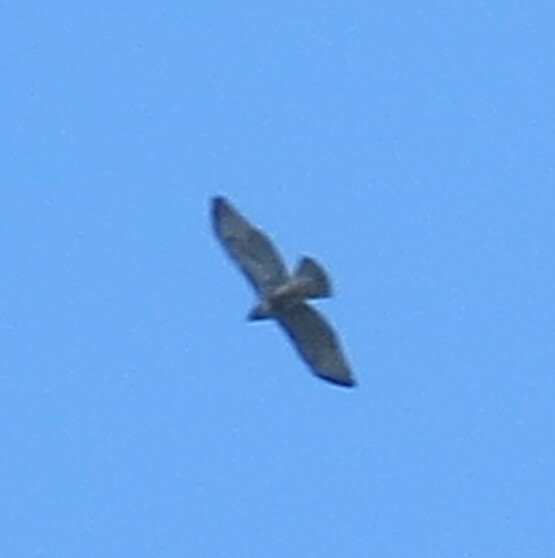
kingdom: Animalia
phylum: Chordata
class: Aves
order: Accipitriformes
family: Accipitridae
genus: Buteo
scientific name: Buteo jamaicensis
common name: Red-tailed hawk
